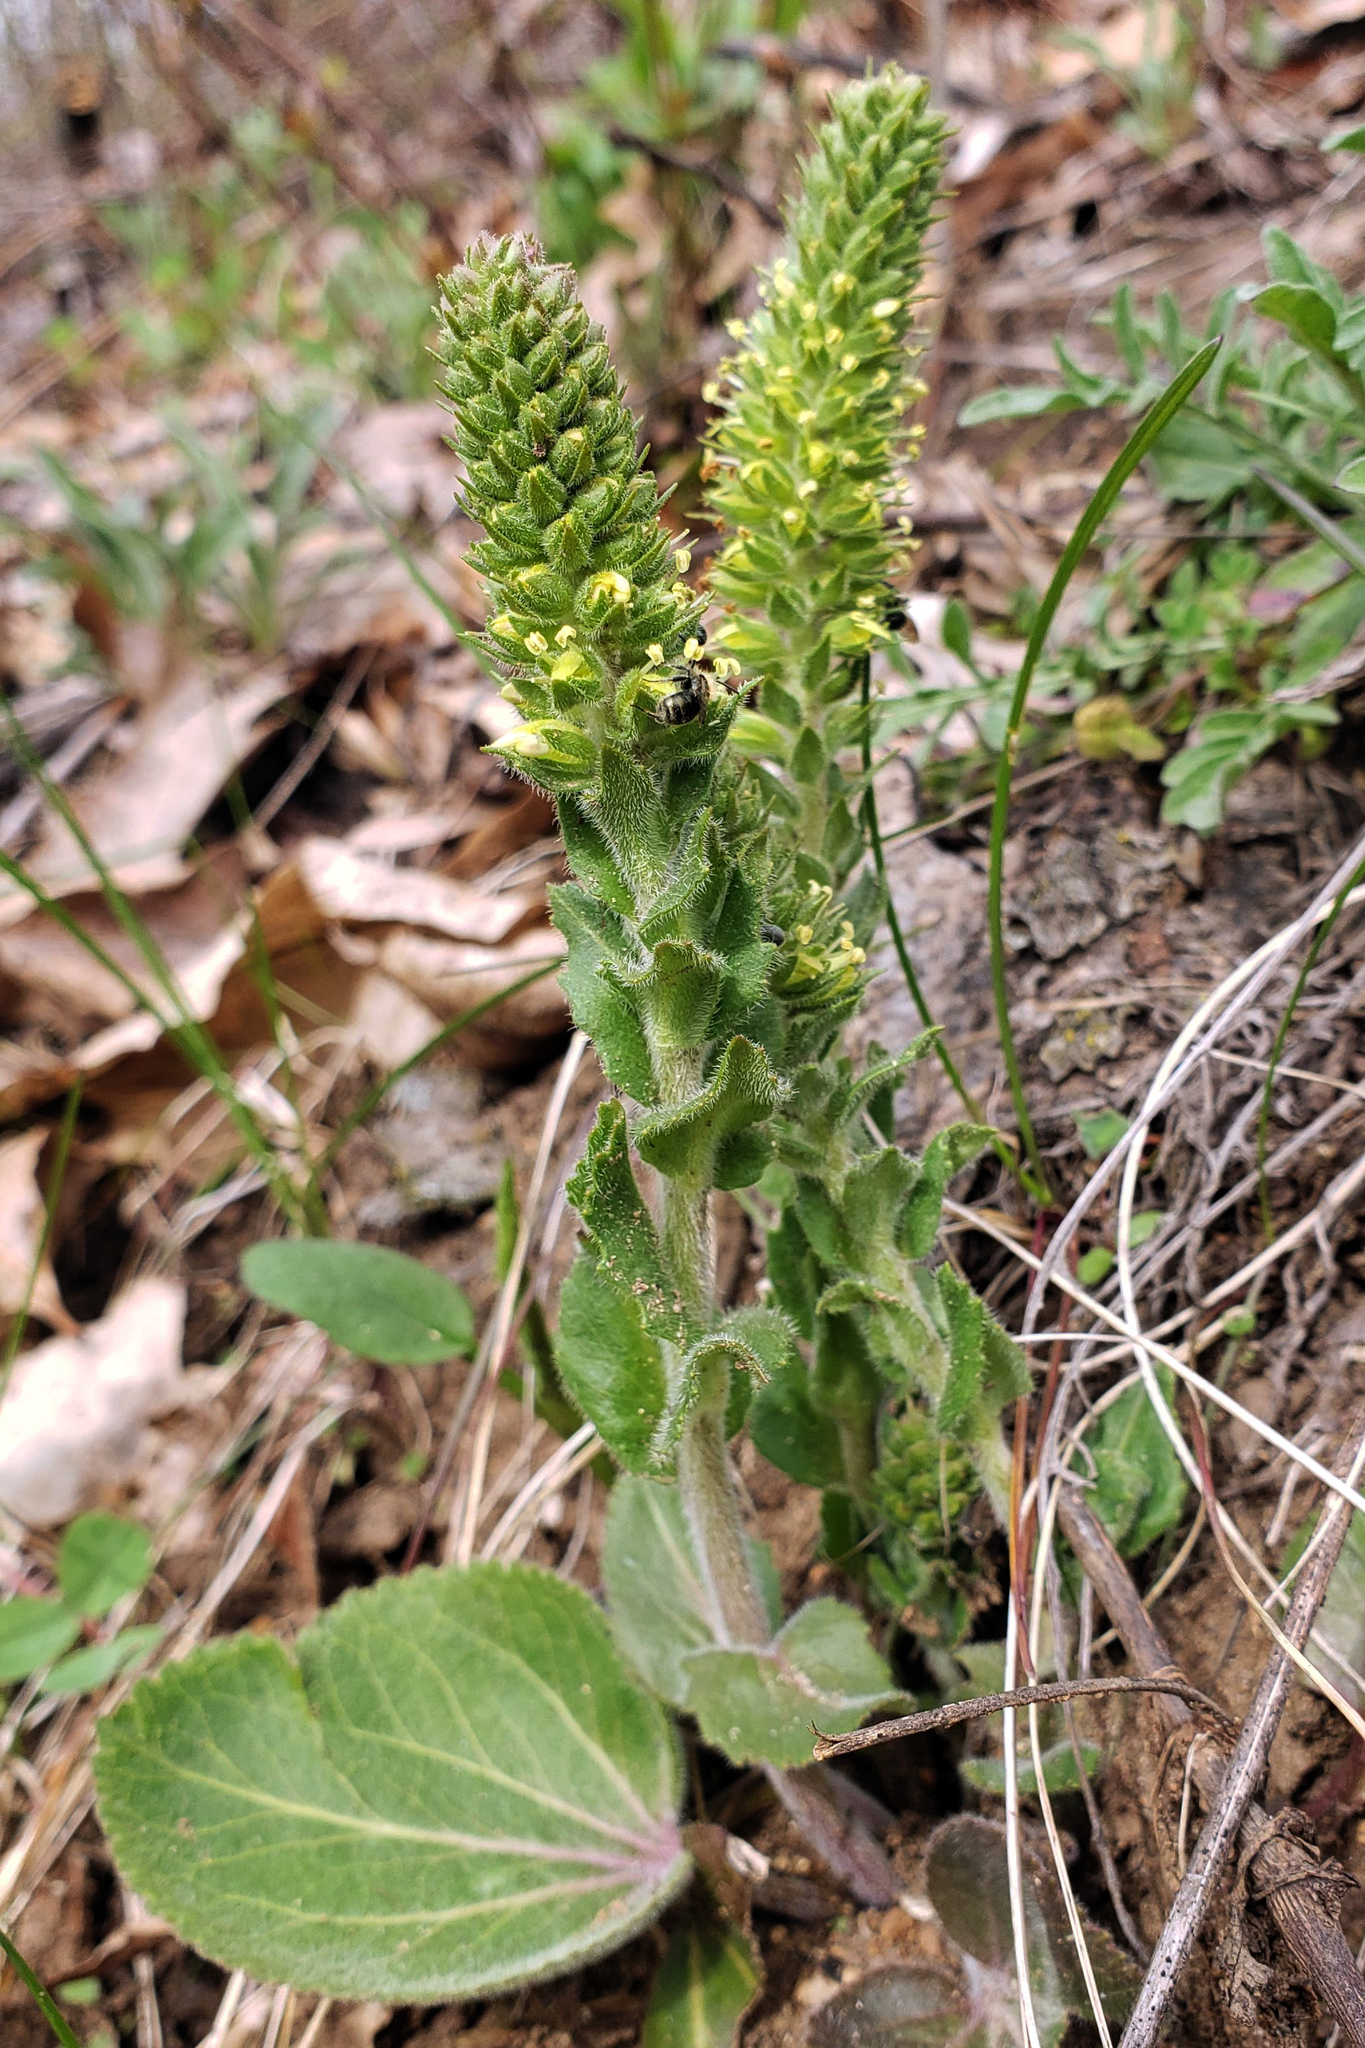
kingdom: Plantae
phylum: Tracheophyta
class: Magnoliopsida
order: Lamiales
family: Plantaginaceae
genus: Synthyris
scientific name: Synthyris bullii
